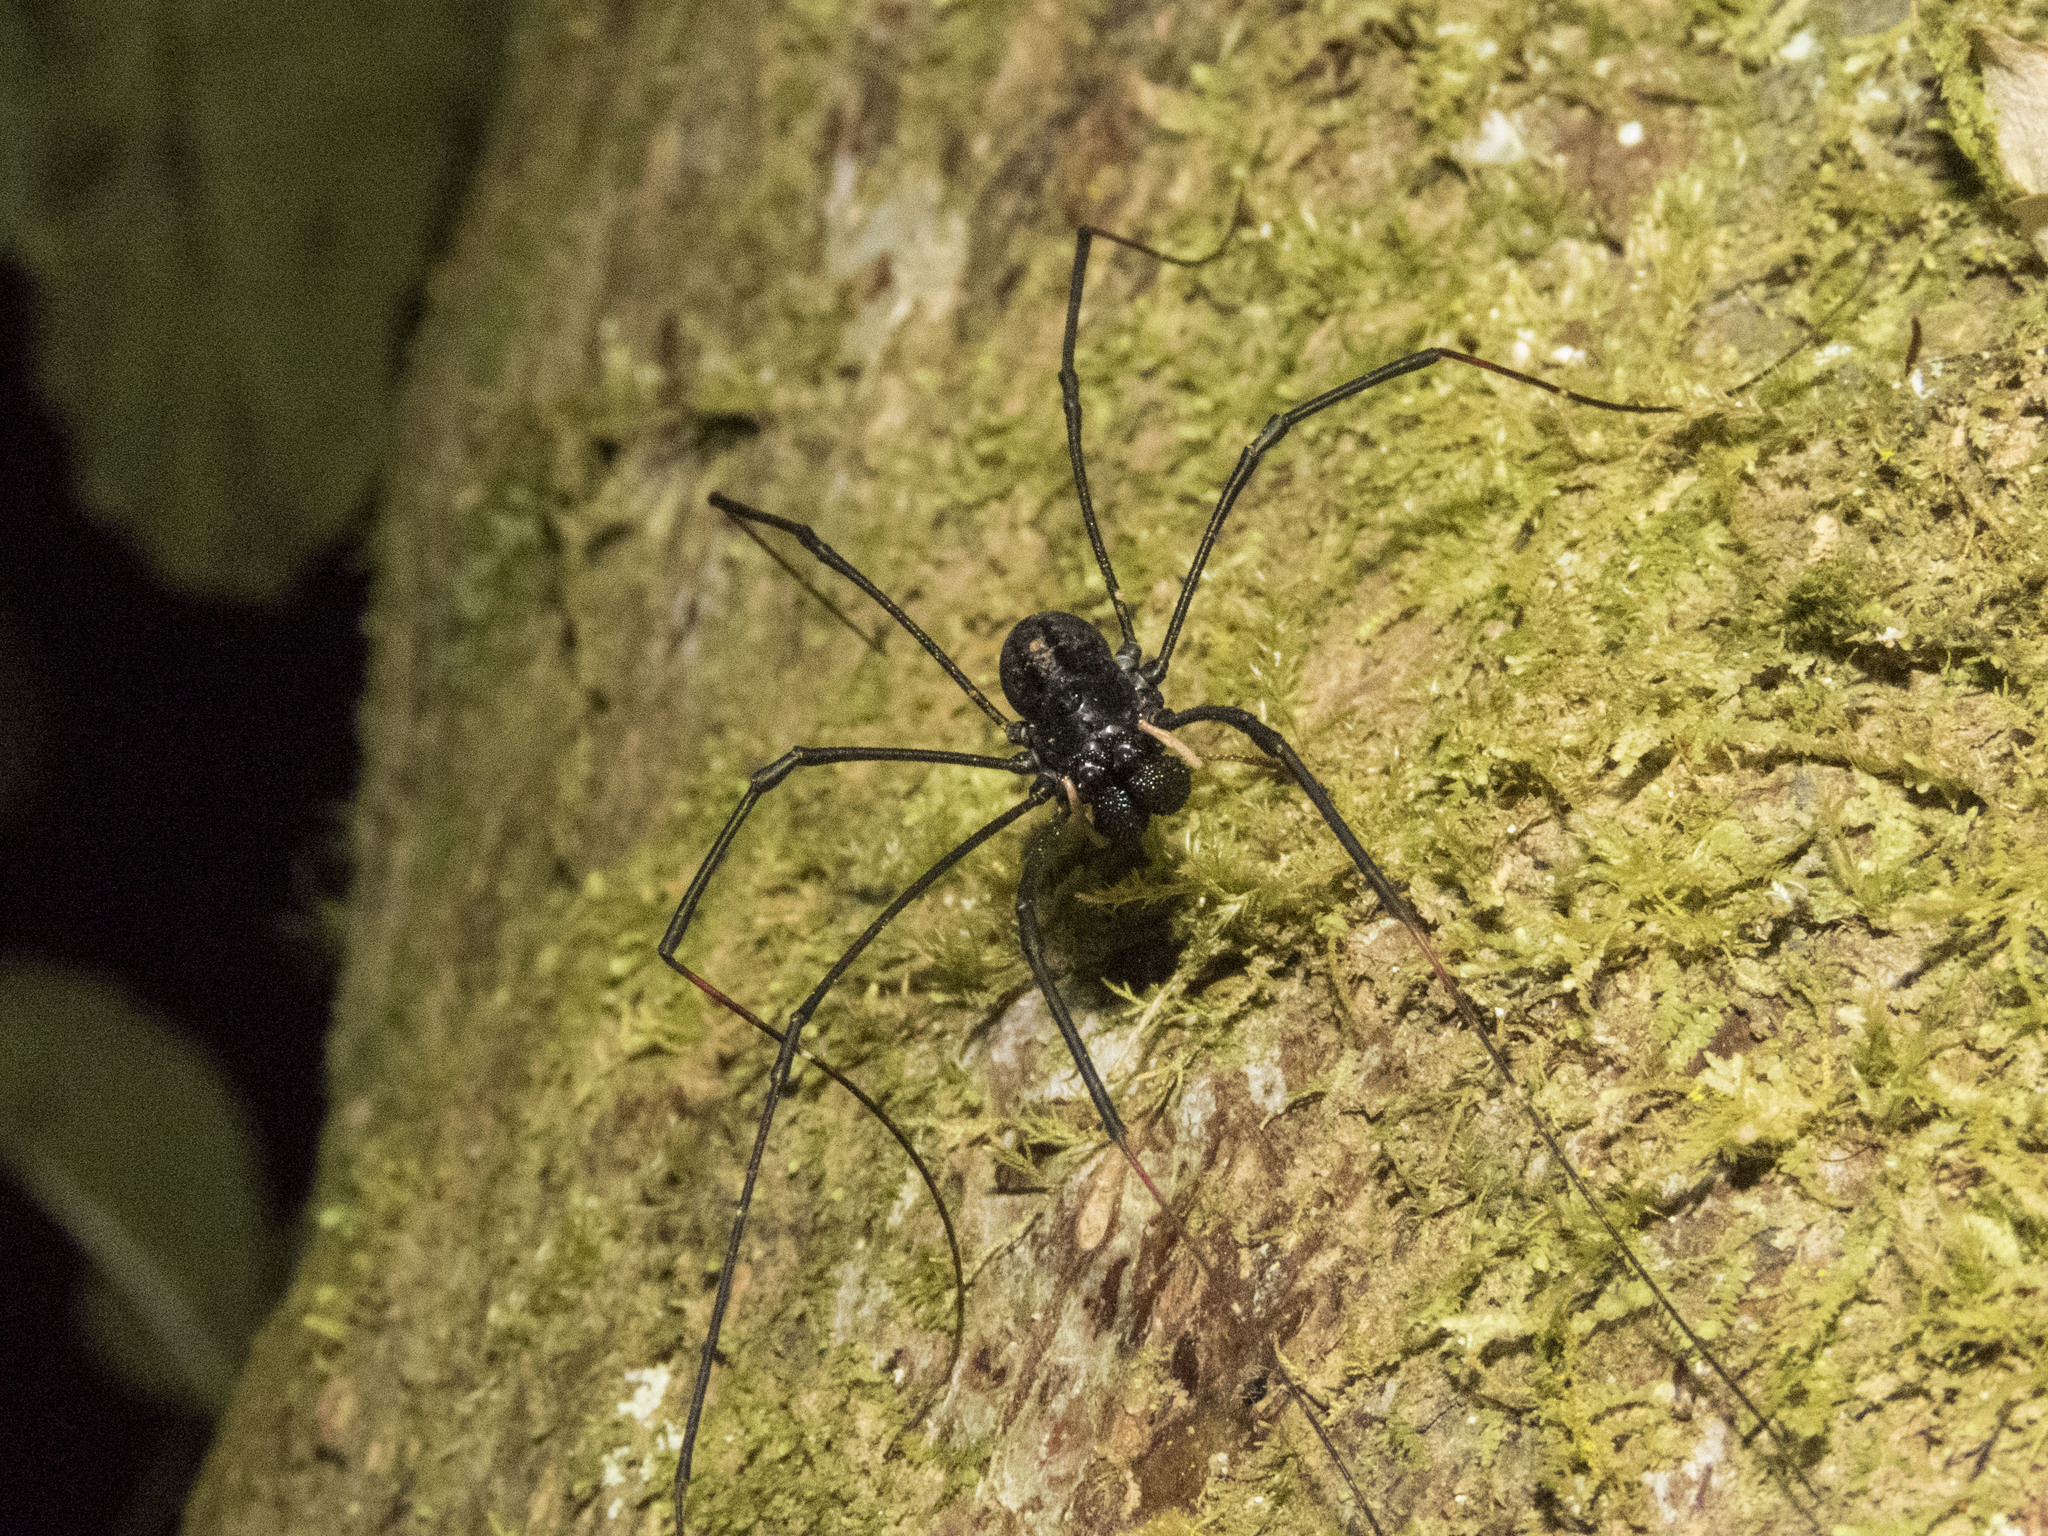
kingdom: Animalia
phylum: Arthropoda
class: Arachnida
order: Opiliones
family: Neopilionidae
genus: Forsteropsalis
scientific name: Forsteropsalis inconstans
